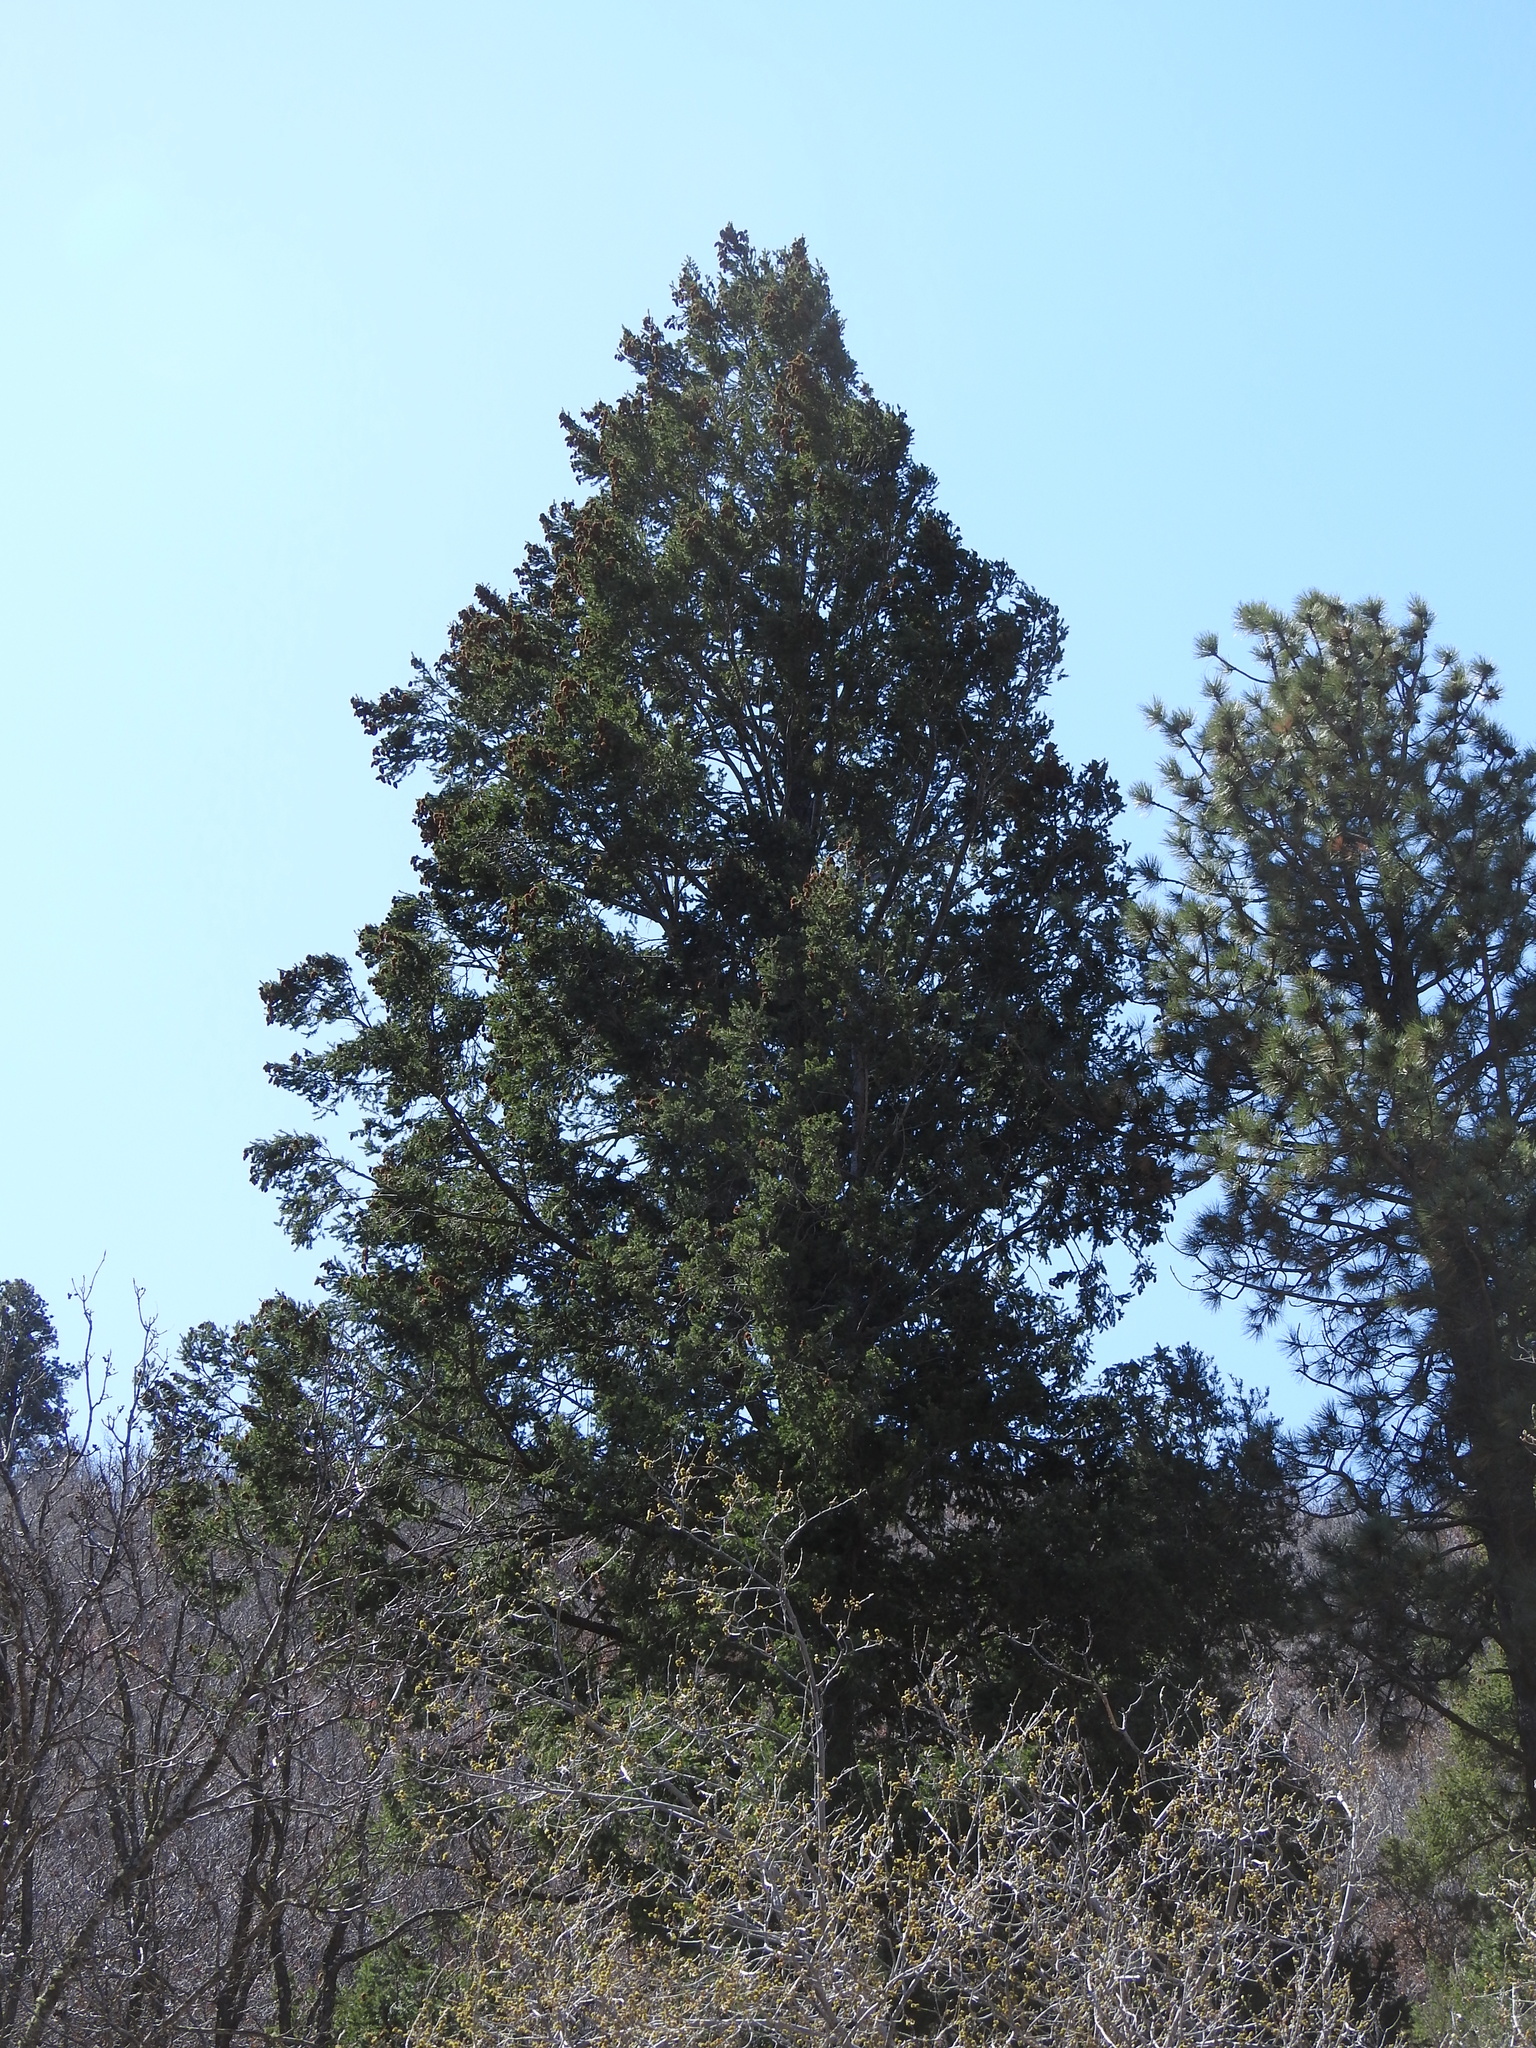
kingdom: Plantae
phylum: Tracheophyta
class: Pinopsida
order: Pinales
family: Pinaceae
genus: Pseudotsuga
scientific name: Pseudotsuga menziesii
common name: Douglas fir
